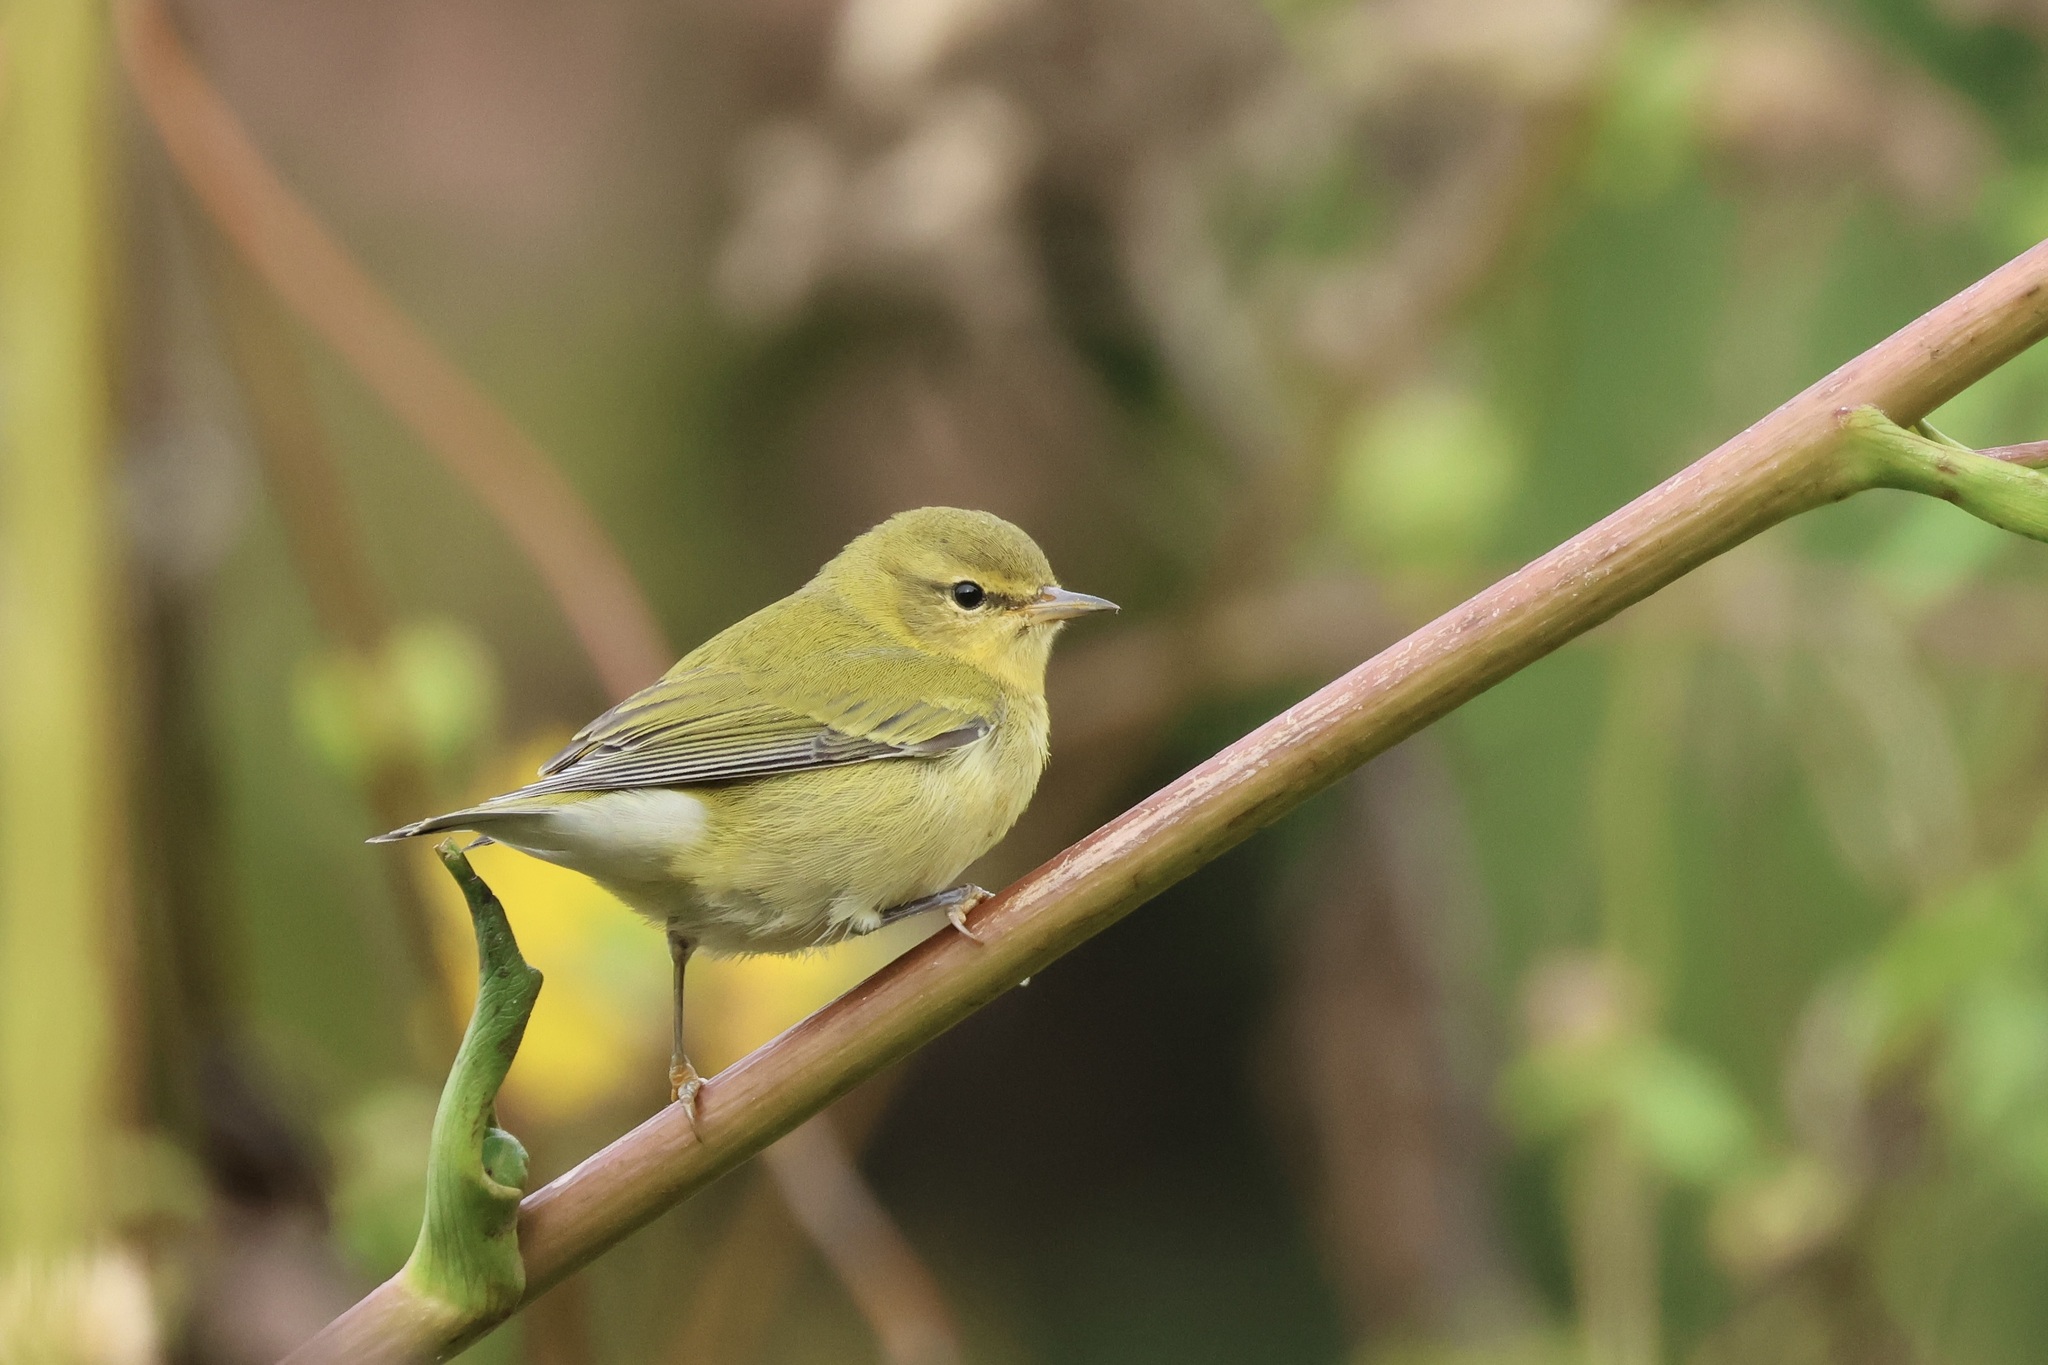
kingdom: Animalia
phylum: Chordata
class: Aves
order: Passeriformes
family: Parulidae
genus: Leiothlypis
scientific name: Leiothlypis peregrina
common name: Tennessee warbler
